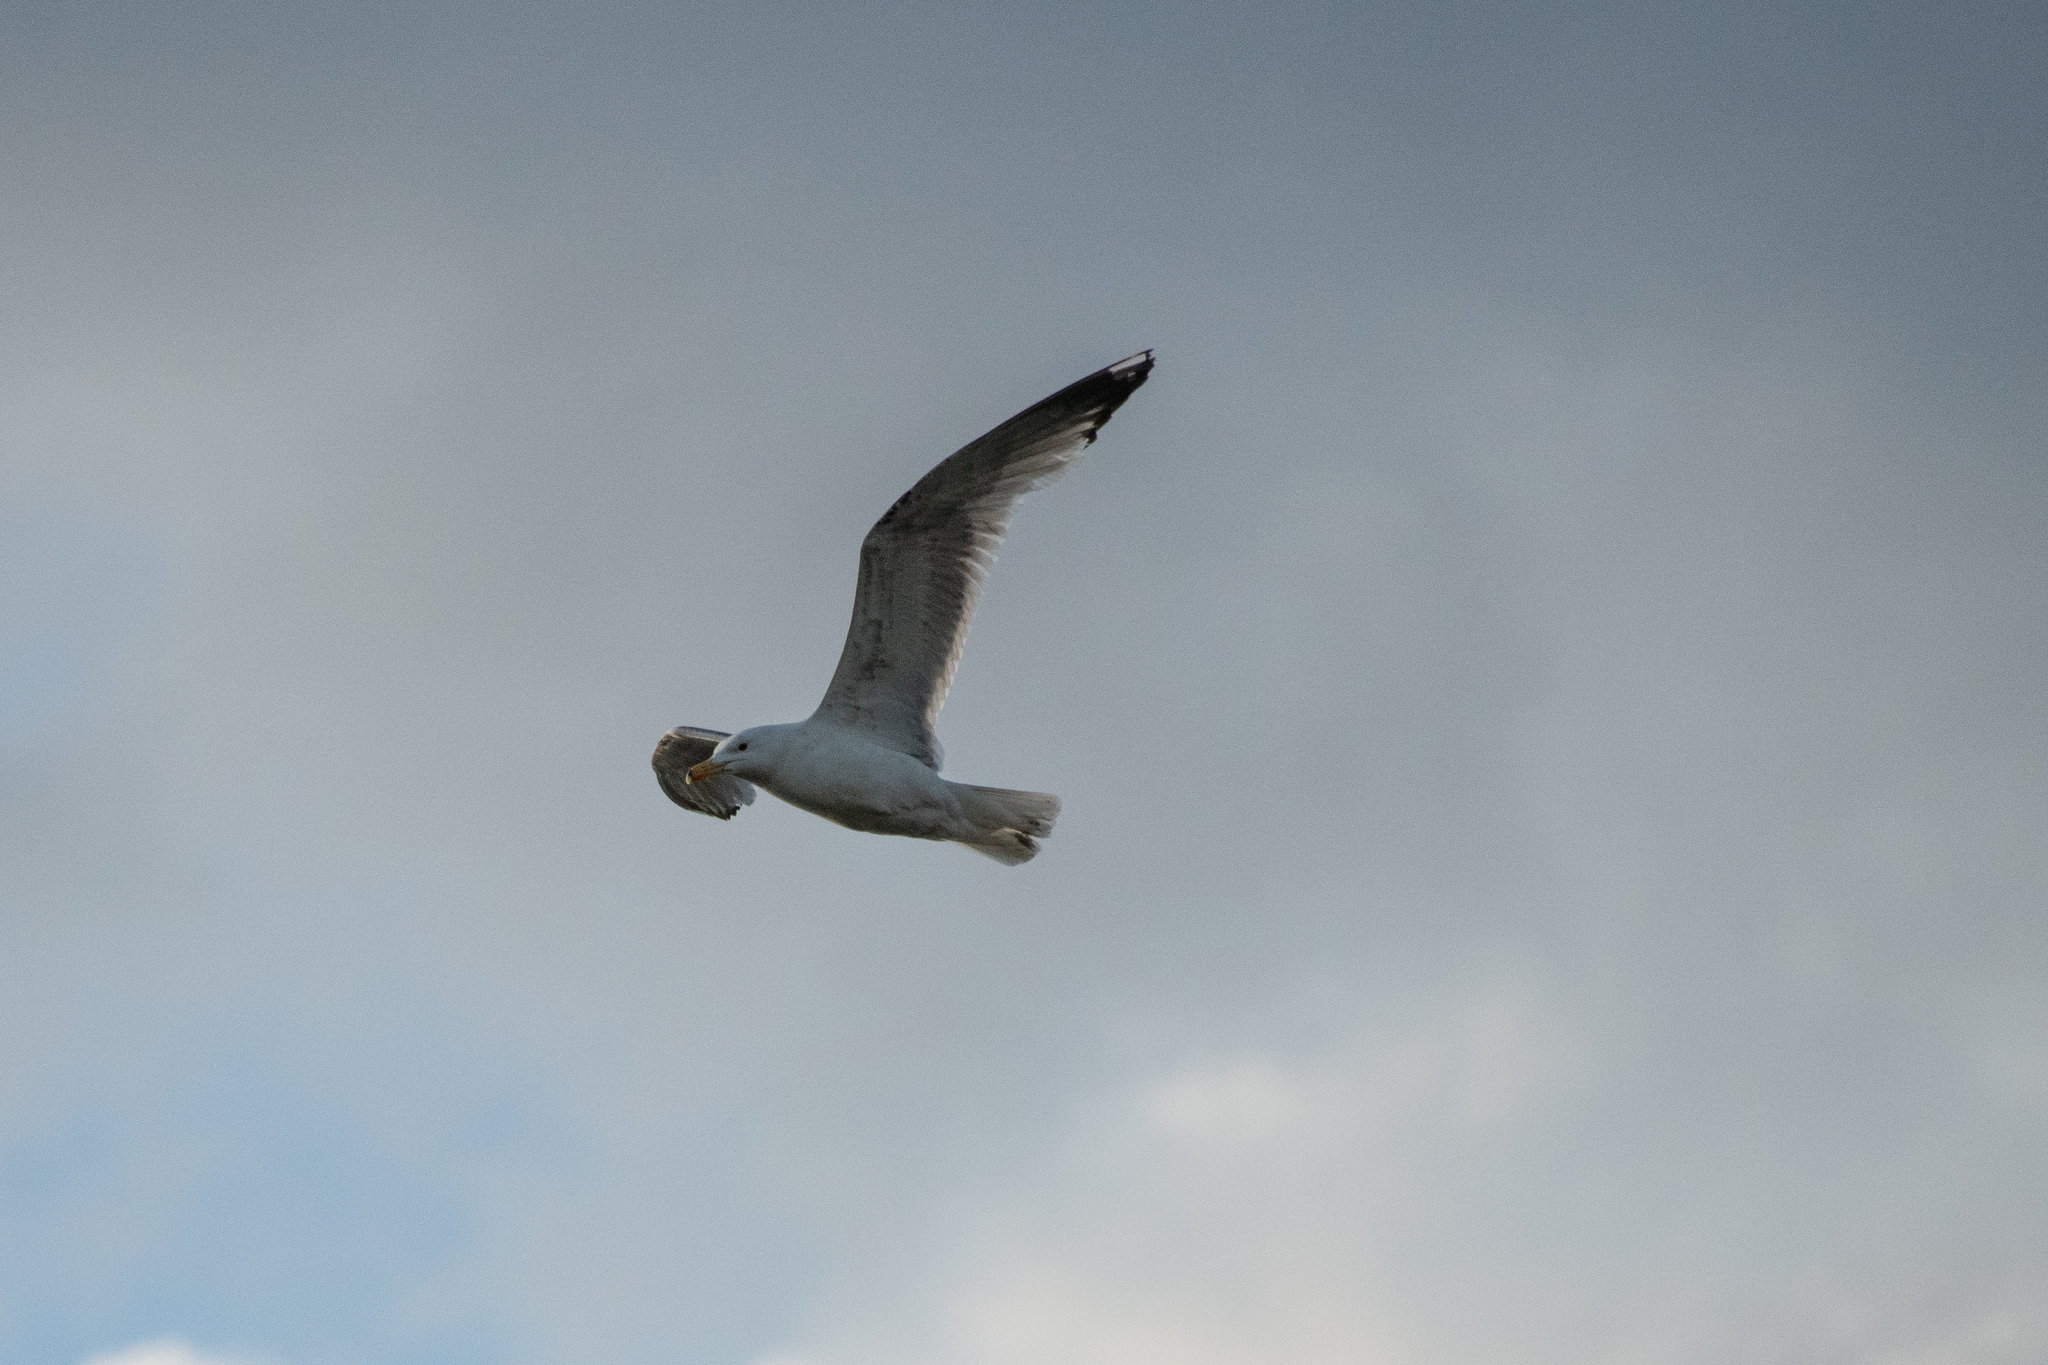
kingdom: Animalia
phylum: Chordata
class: Aves
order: Charadriiformes
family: Laridae
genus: Larus
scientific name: Larus argentatus
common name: Herring gull
